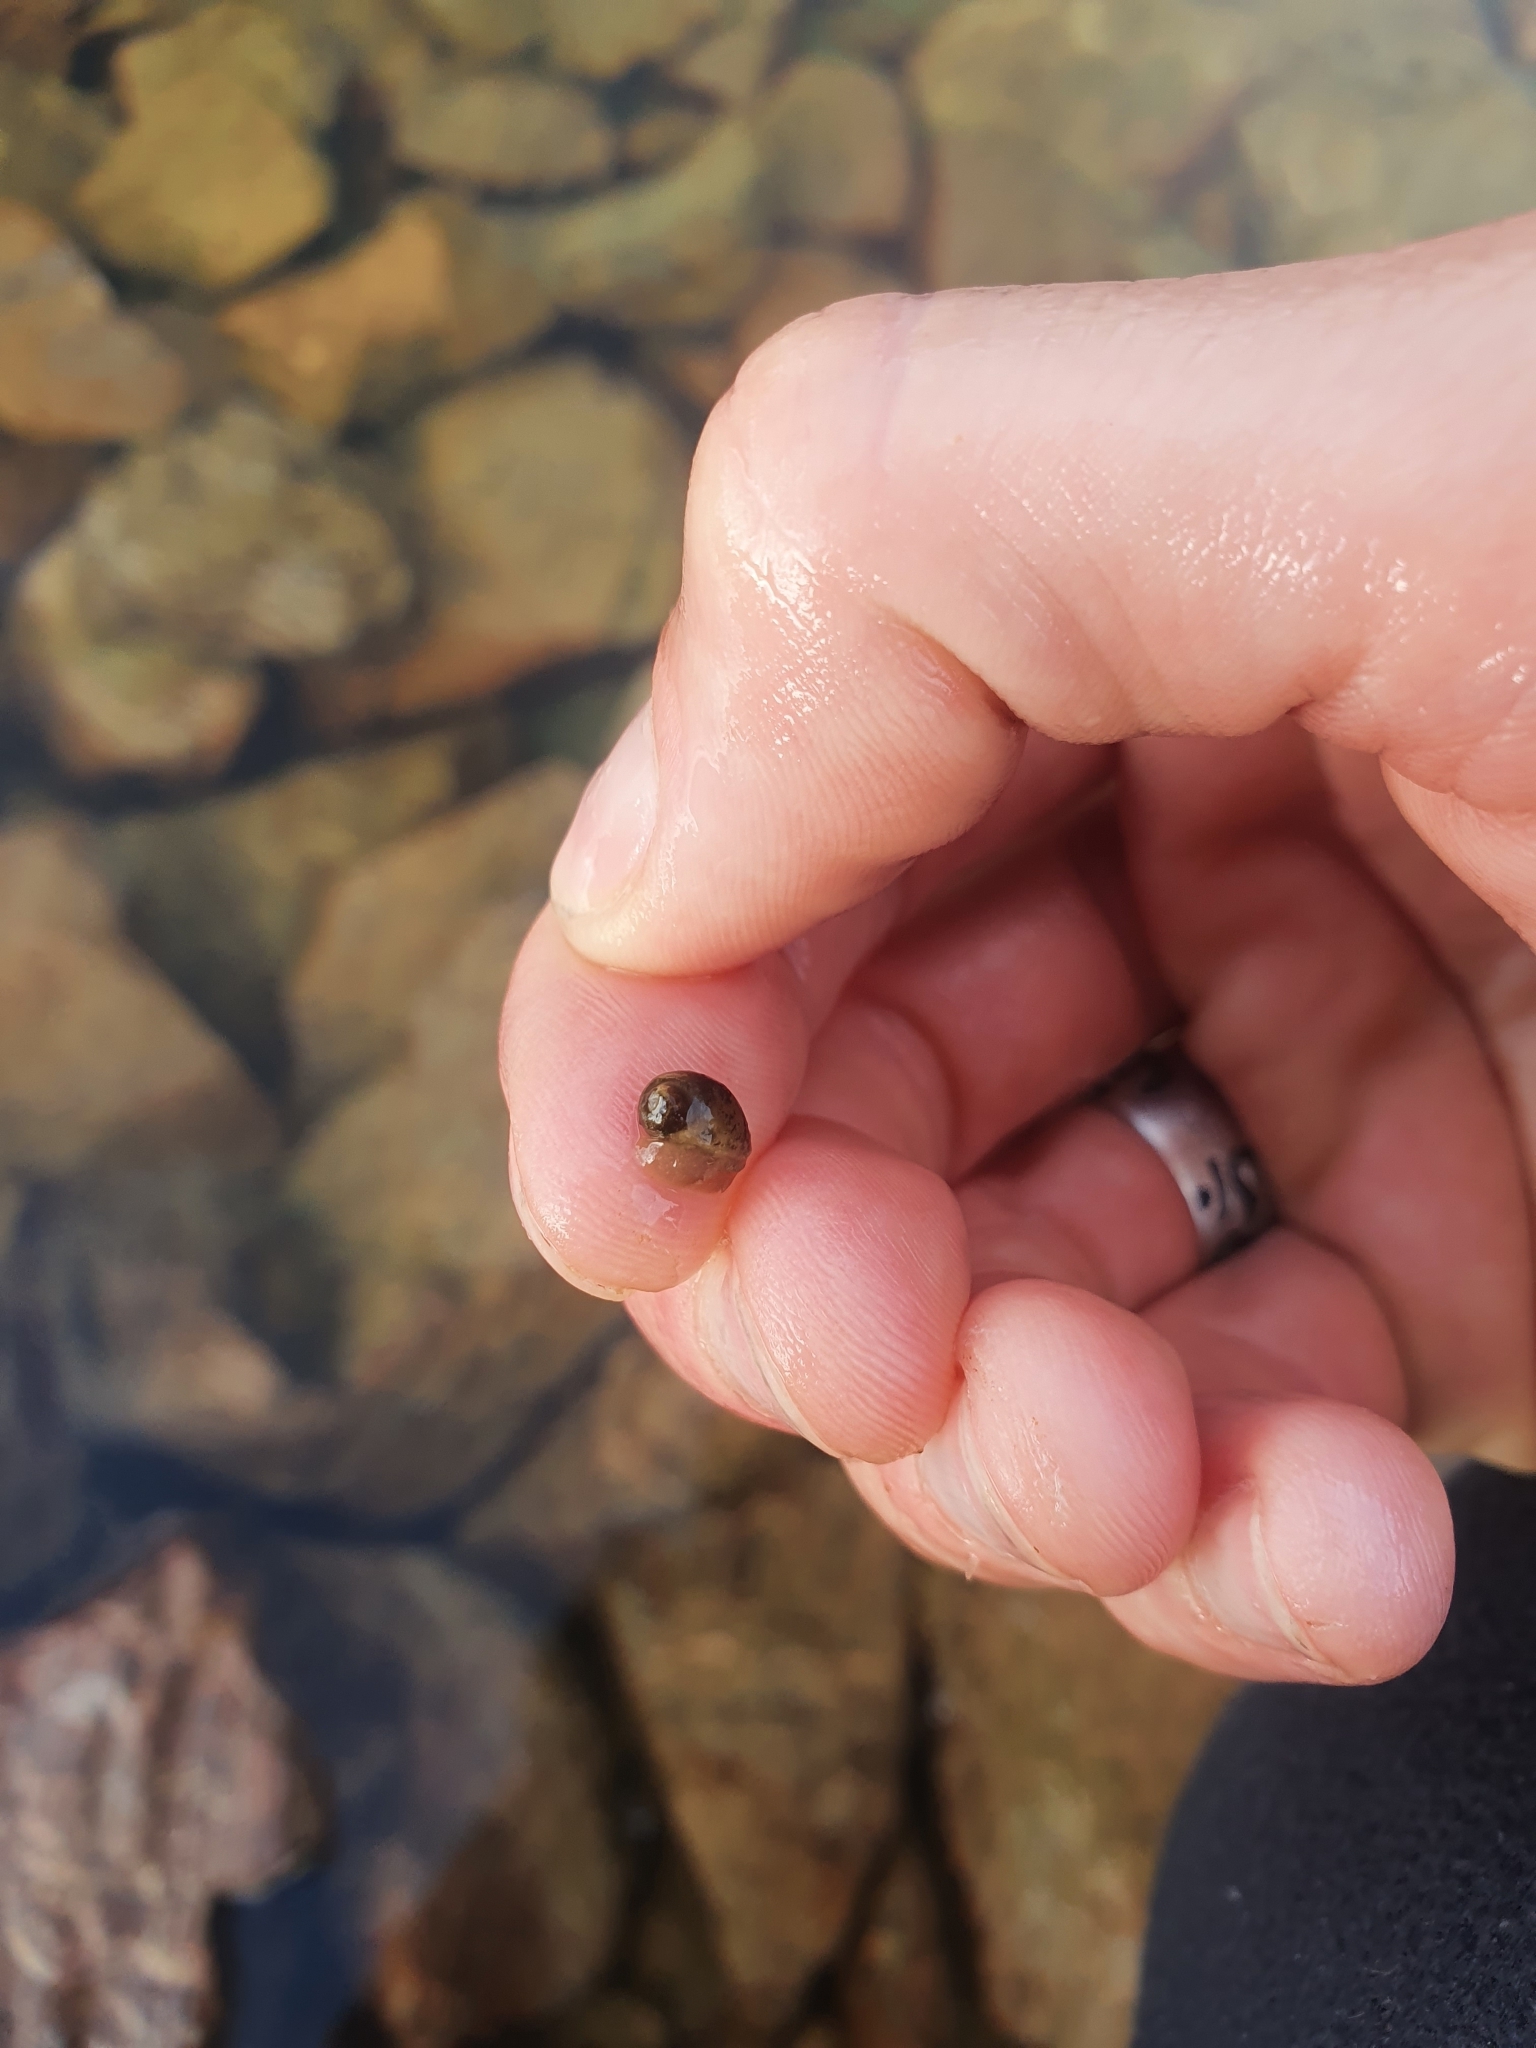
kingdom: Animalia
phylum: Mollusca
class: Gastropoda
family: Lymnaeidae
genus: Radix
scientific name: Radix auricularia
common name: Ear pond snail
